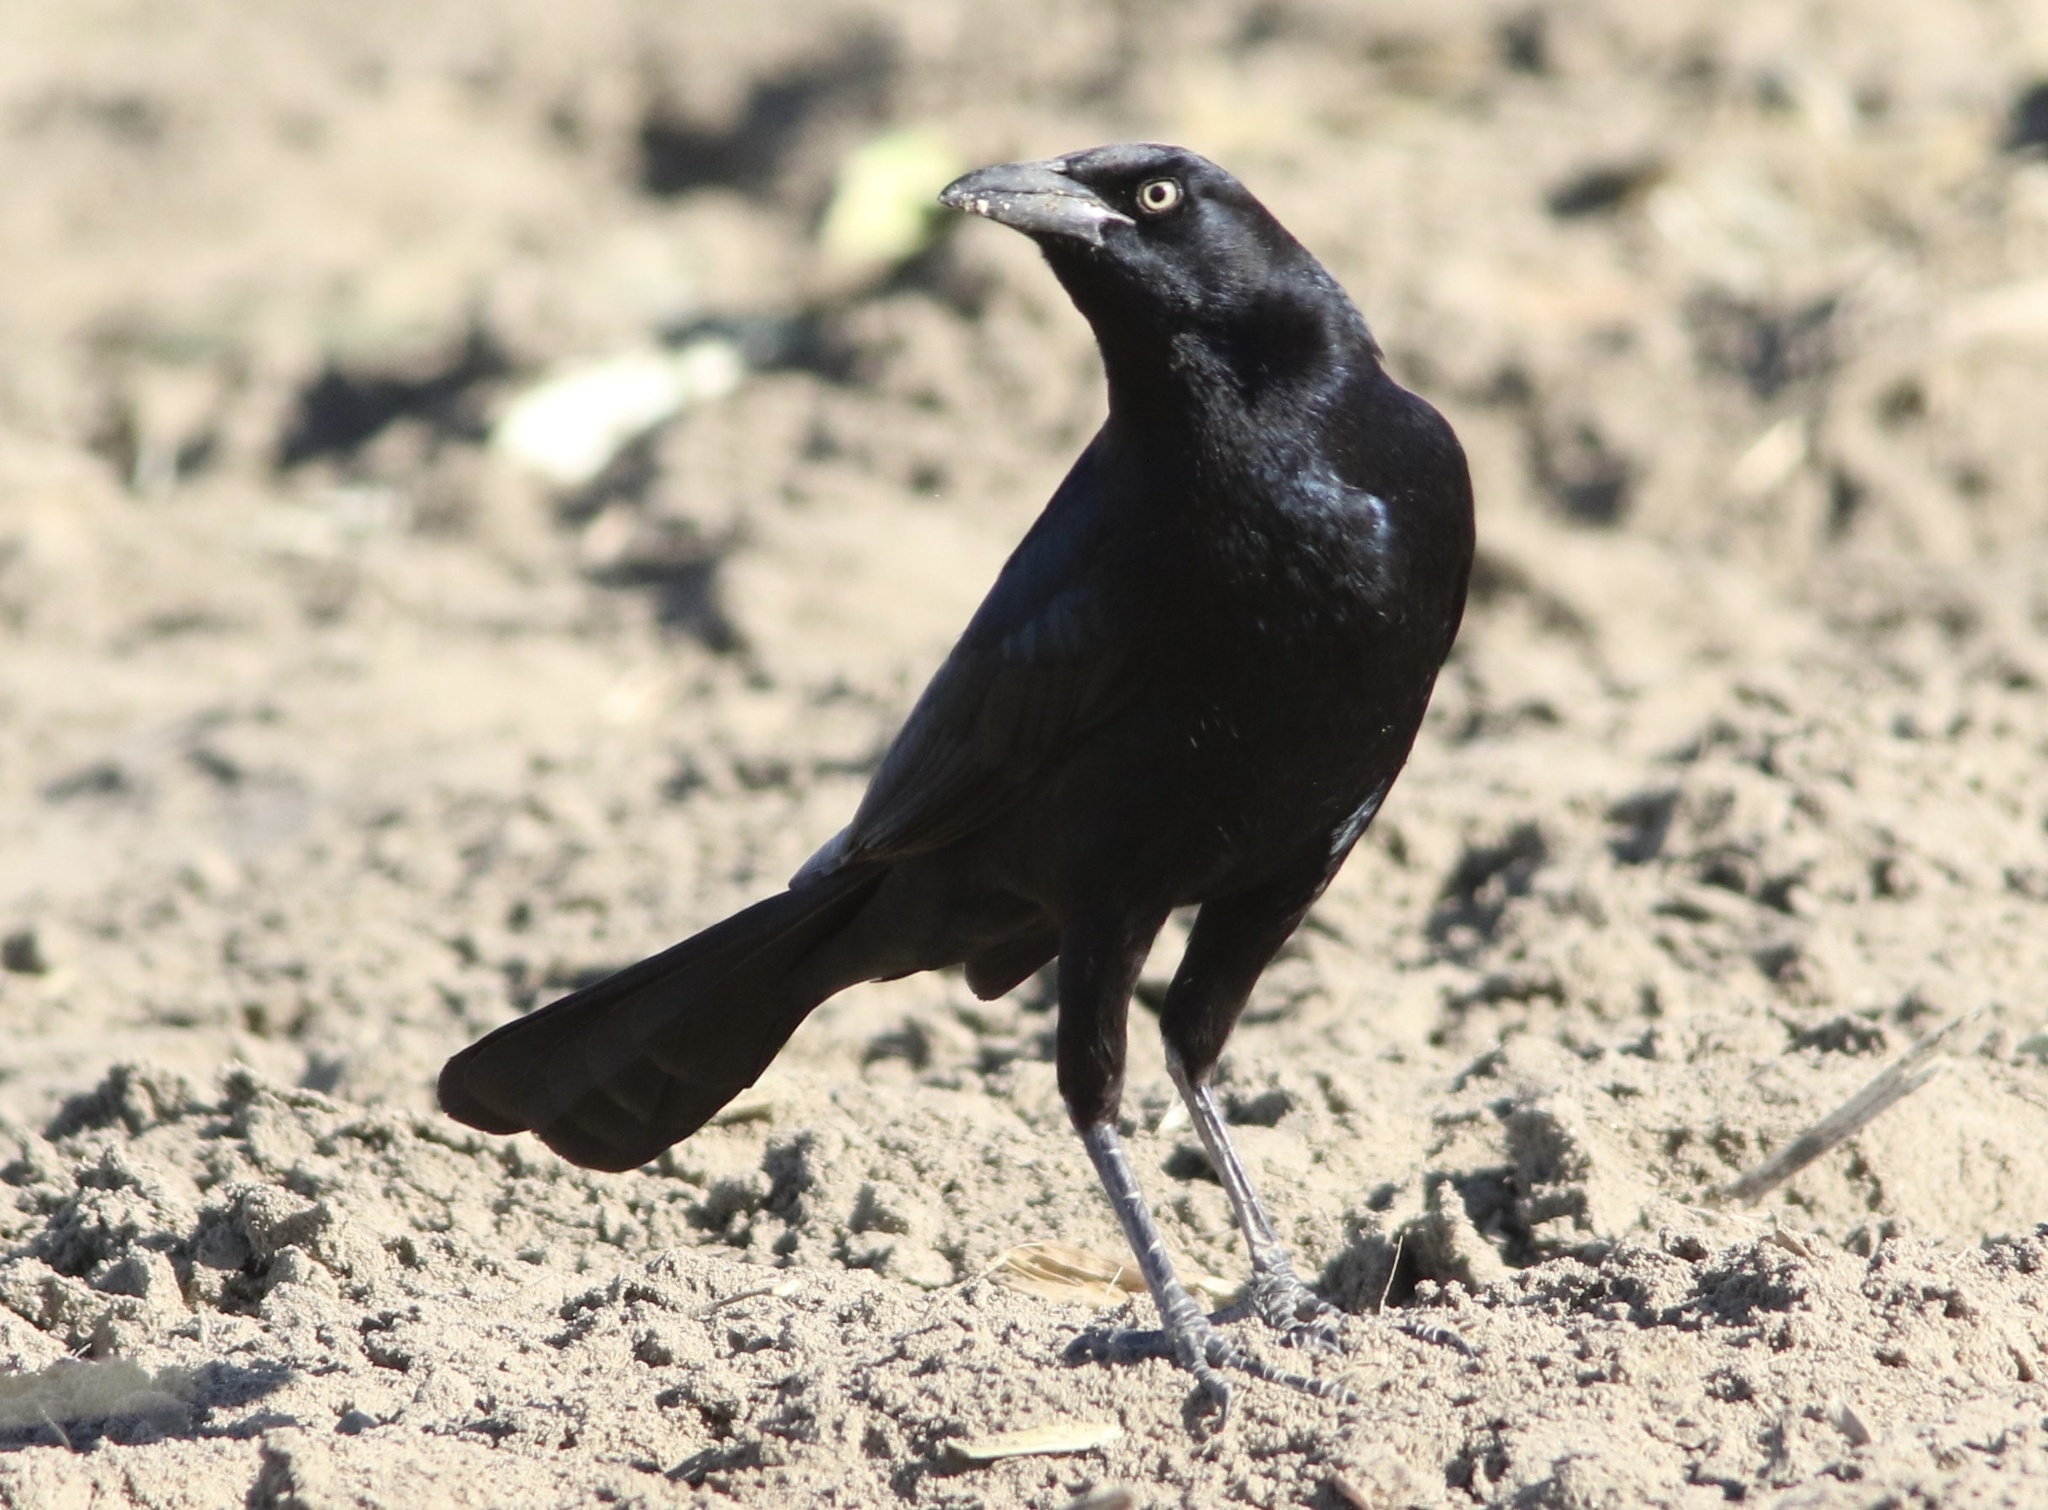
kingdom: Animalia
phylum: Chordata
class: Aves
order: Passeriformes
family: Icteridae
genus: Quiscalus
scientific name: Quiscalus mexicanus
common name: Great-tailed grackle
